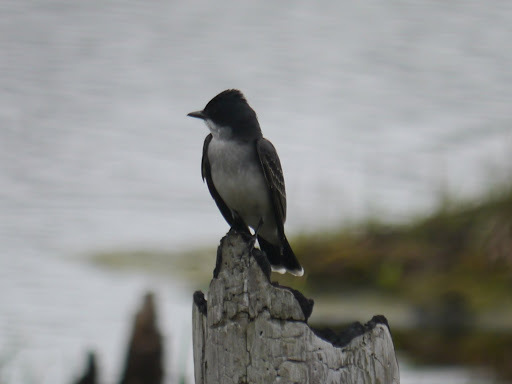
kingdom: Animalia
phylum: Chordata
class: Aves
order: Passeriformes
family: Tyrannidae
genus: Tyrannus
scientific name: Tyrannus tyrannus
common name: Eastern kingbird
